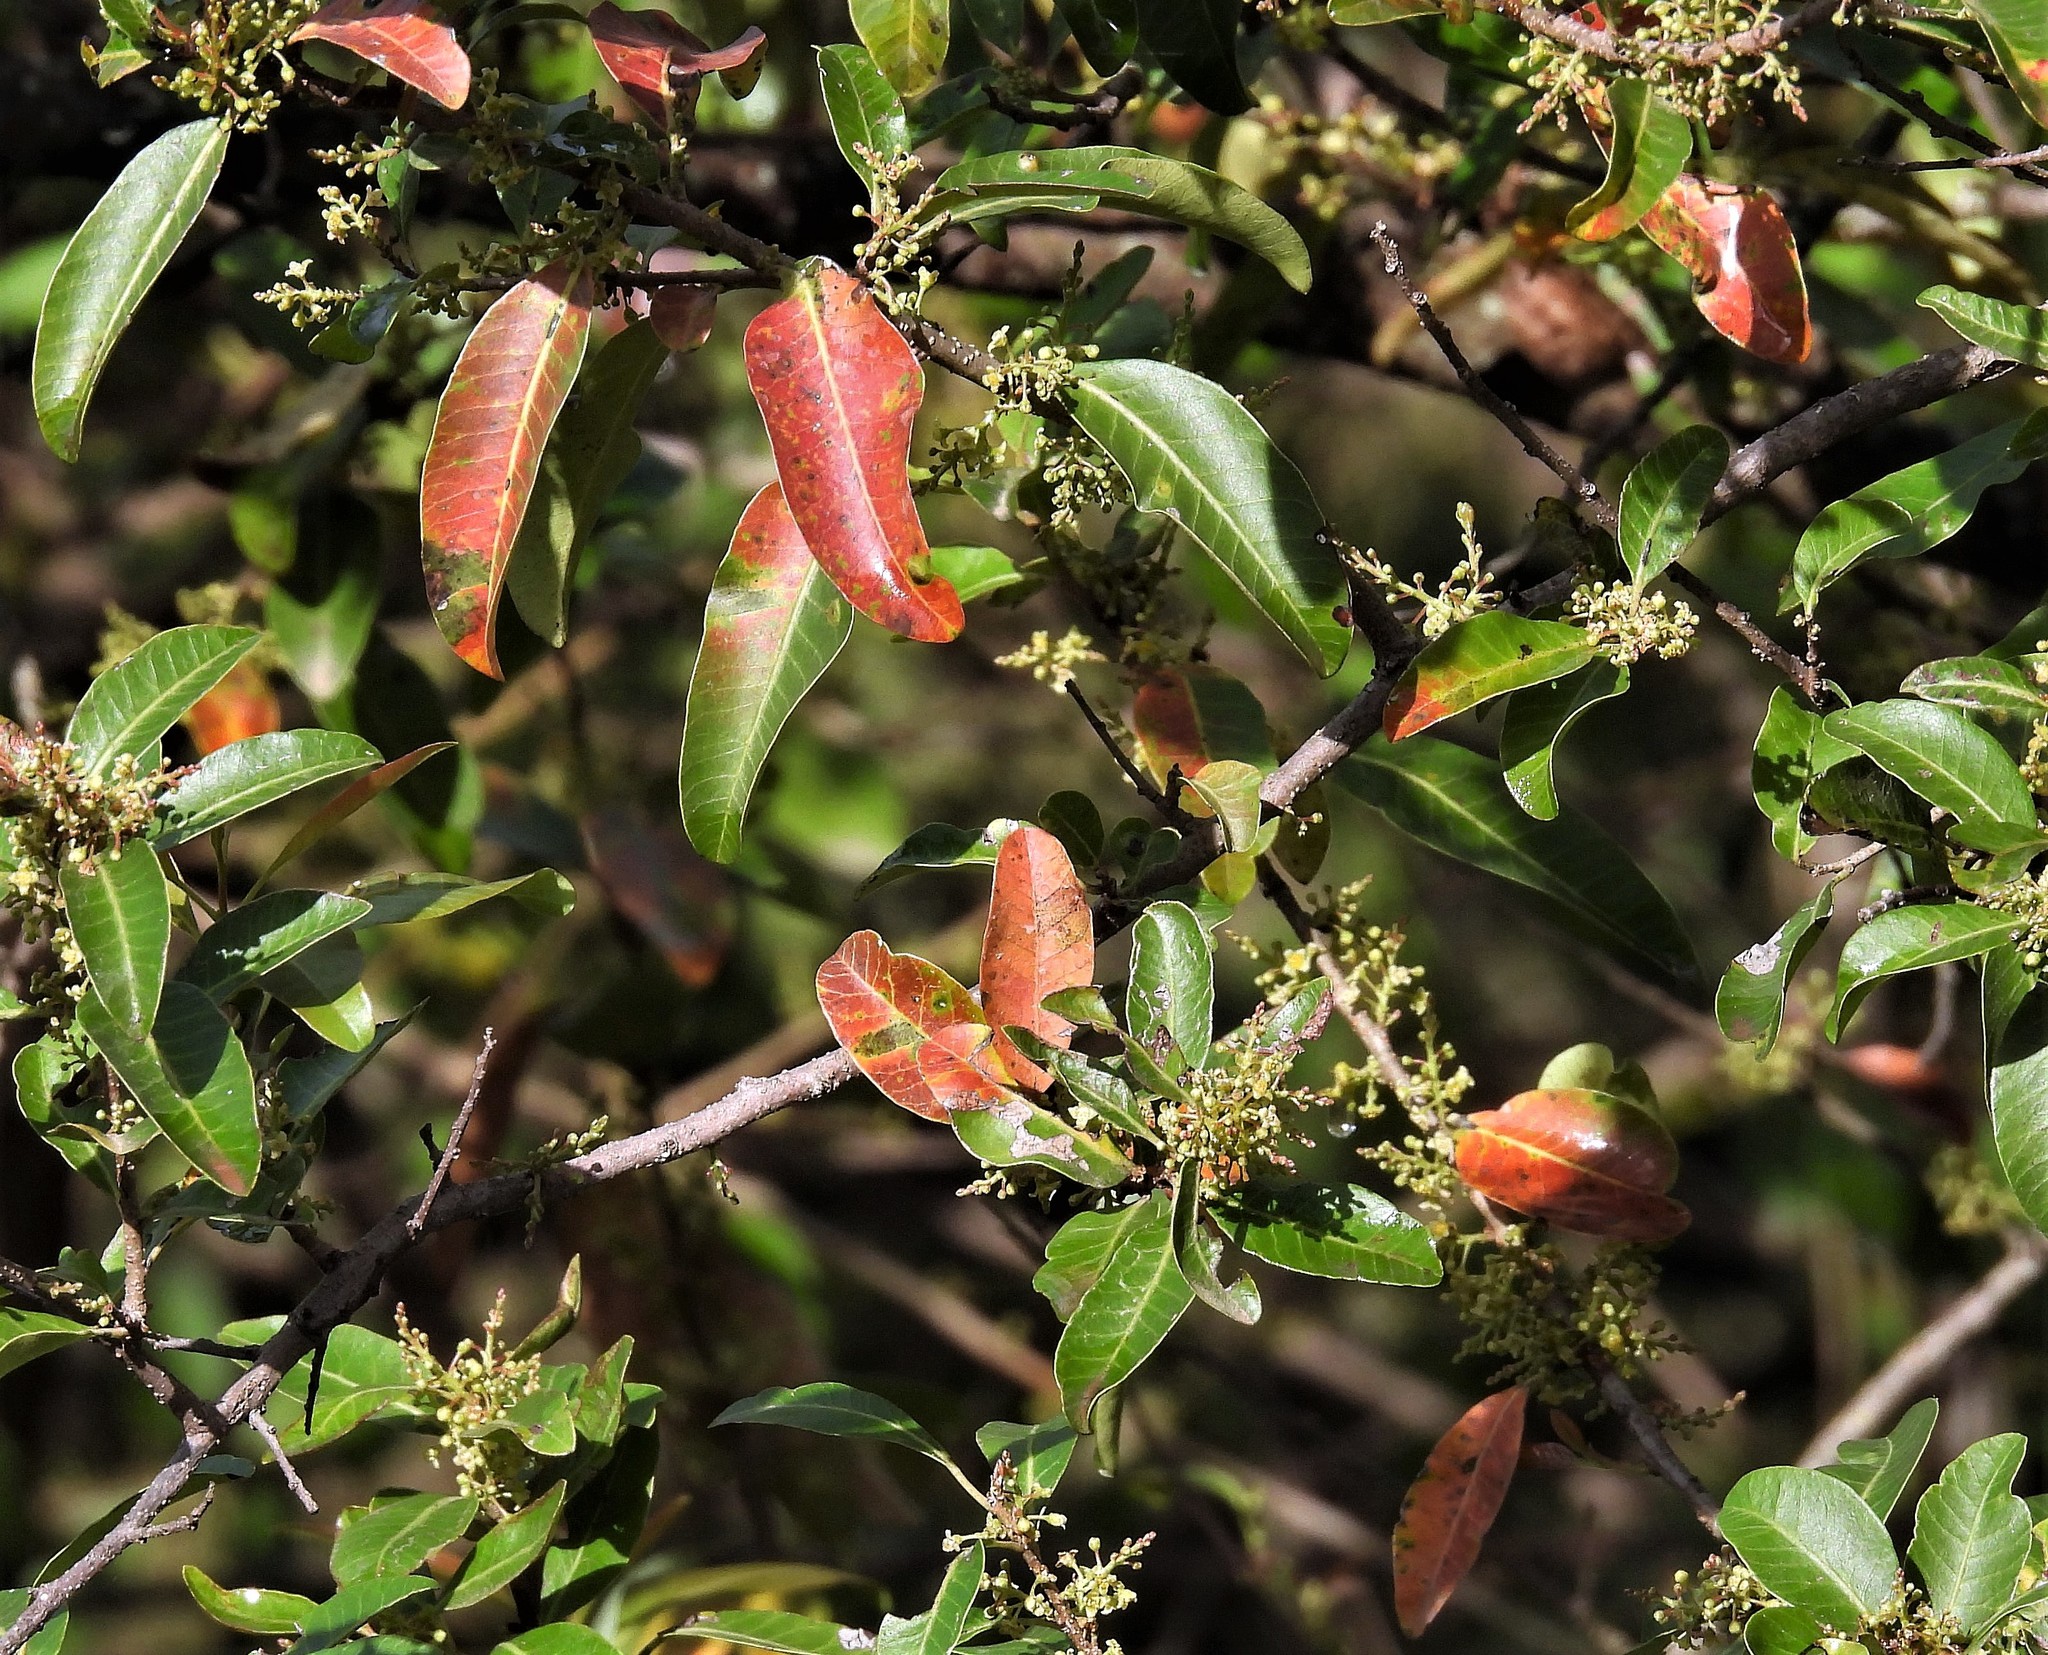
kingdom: Plantae
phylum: Tracheophyta
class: Magnoliopsida
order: Sapindales
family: Anacardiaceae
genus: Schinus
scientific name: Schinus gracilipes
